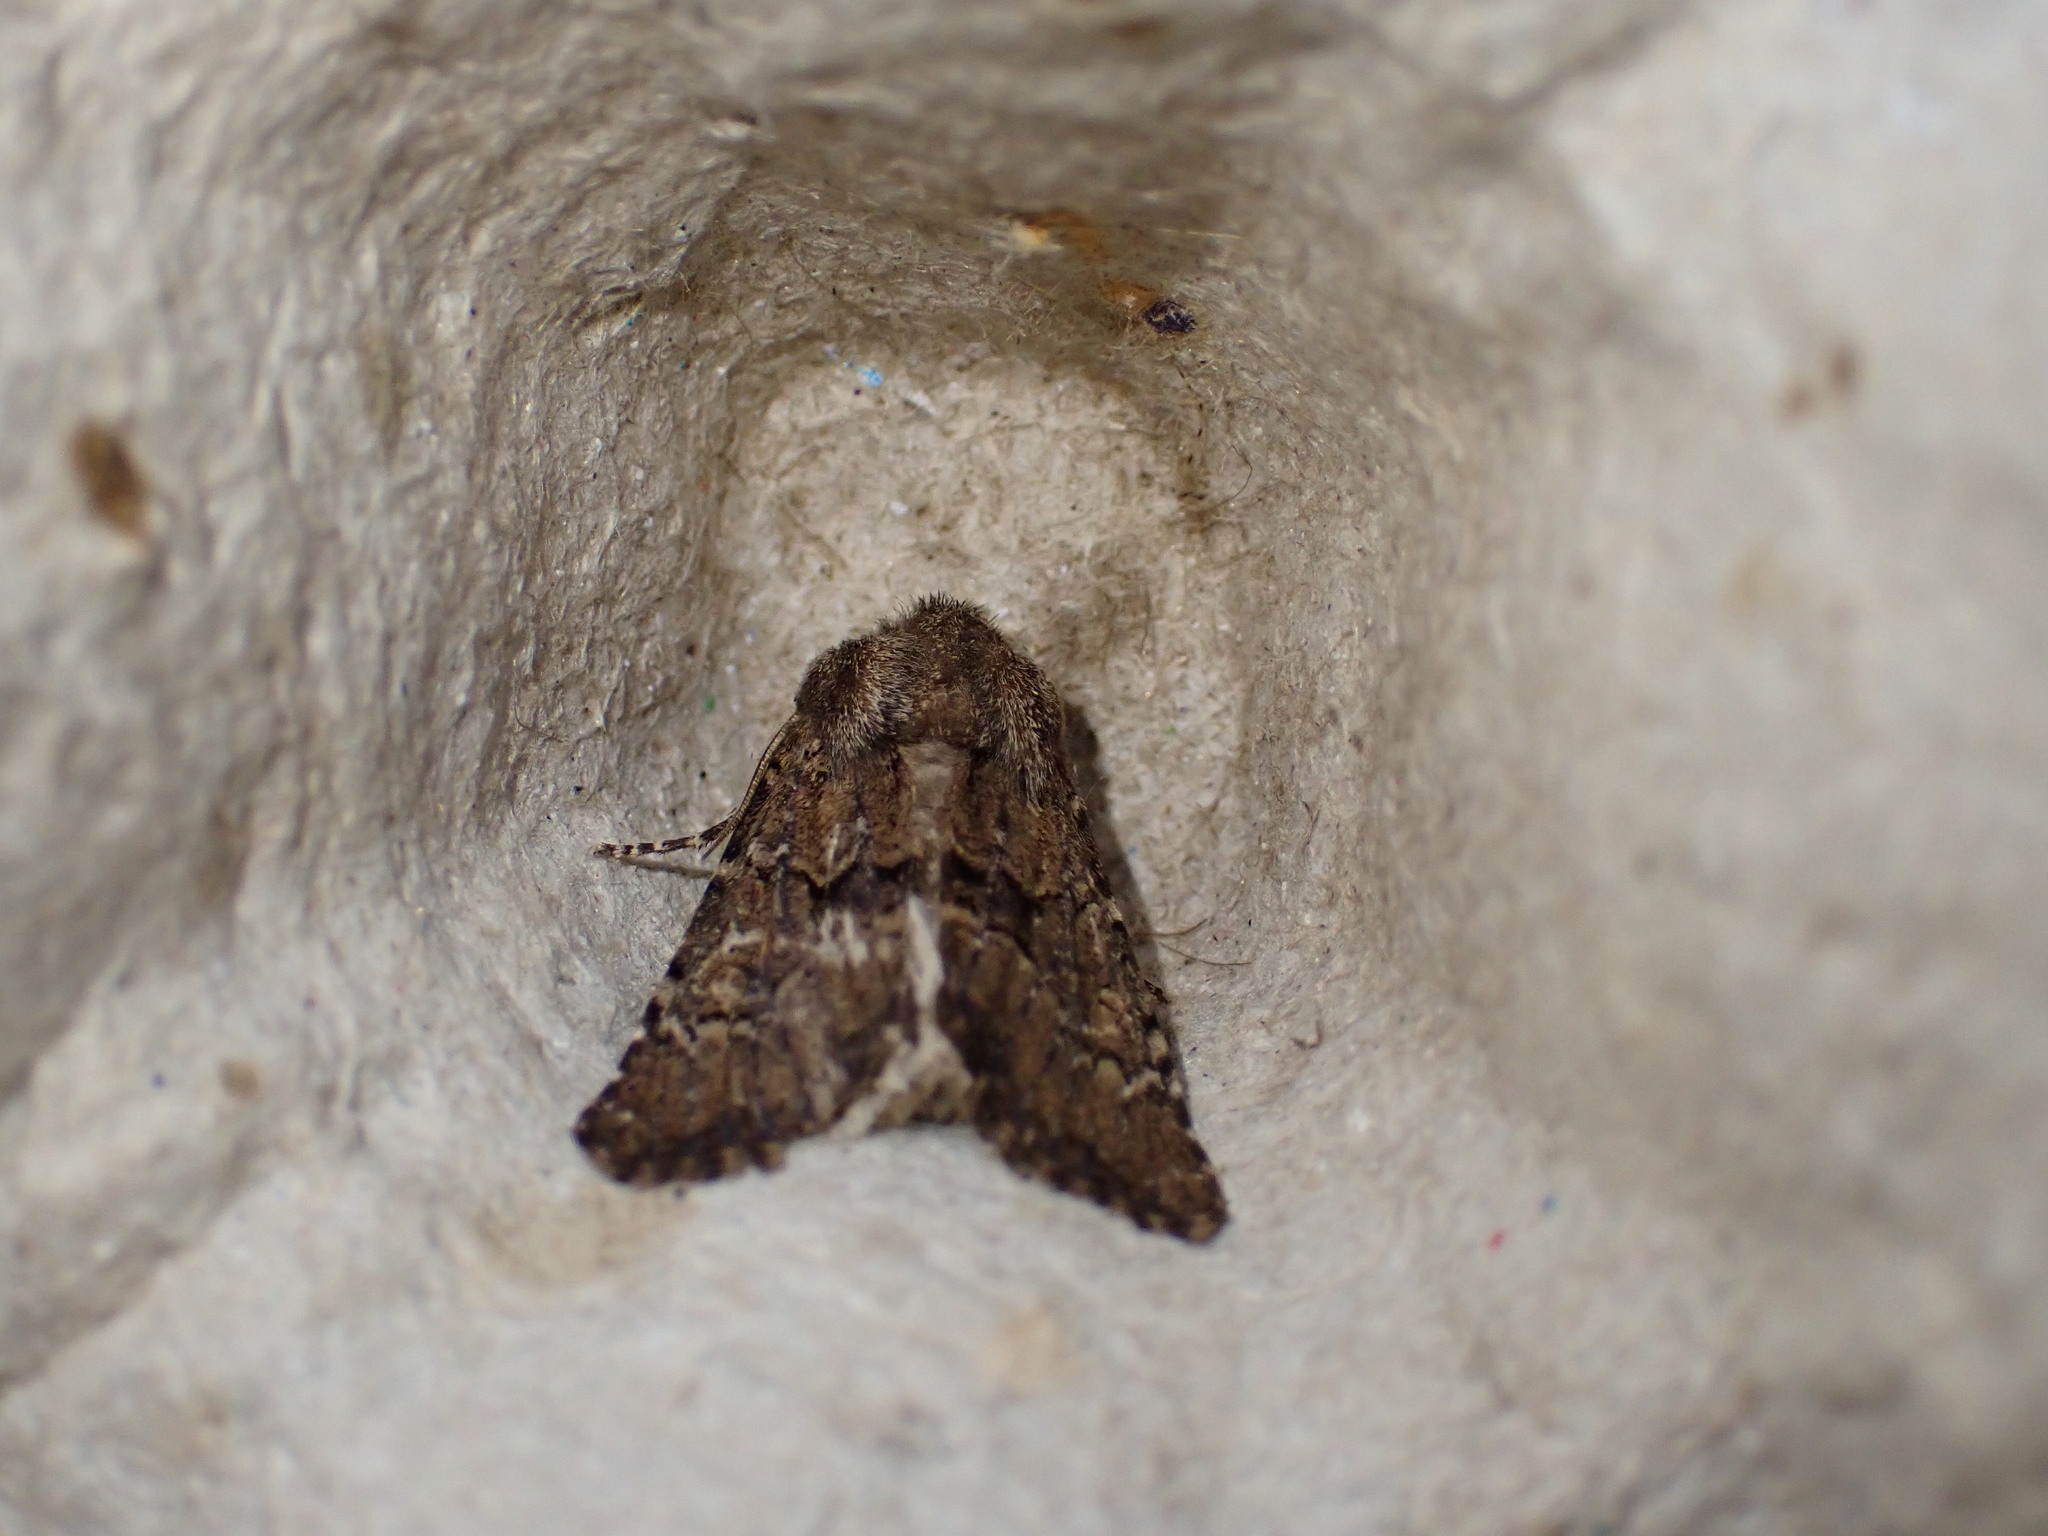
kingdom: Animalia
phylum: Arthropoda
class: Insecta
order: Lepidoptera
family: Noctuidae
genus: Luperina
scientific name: Luperina testacea
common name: Flounced rustic
